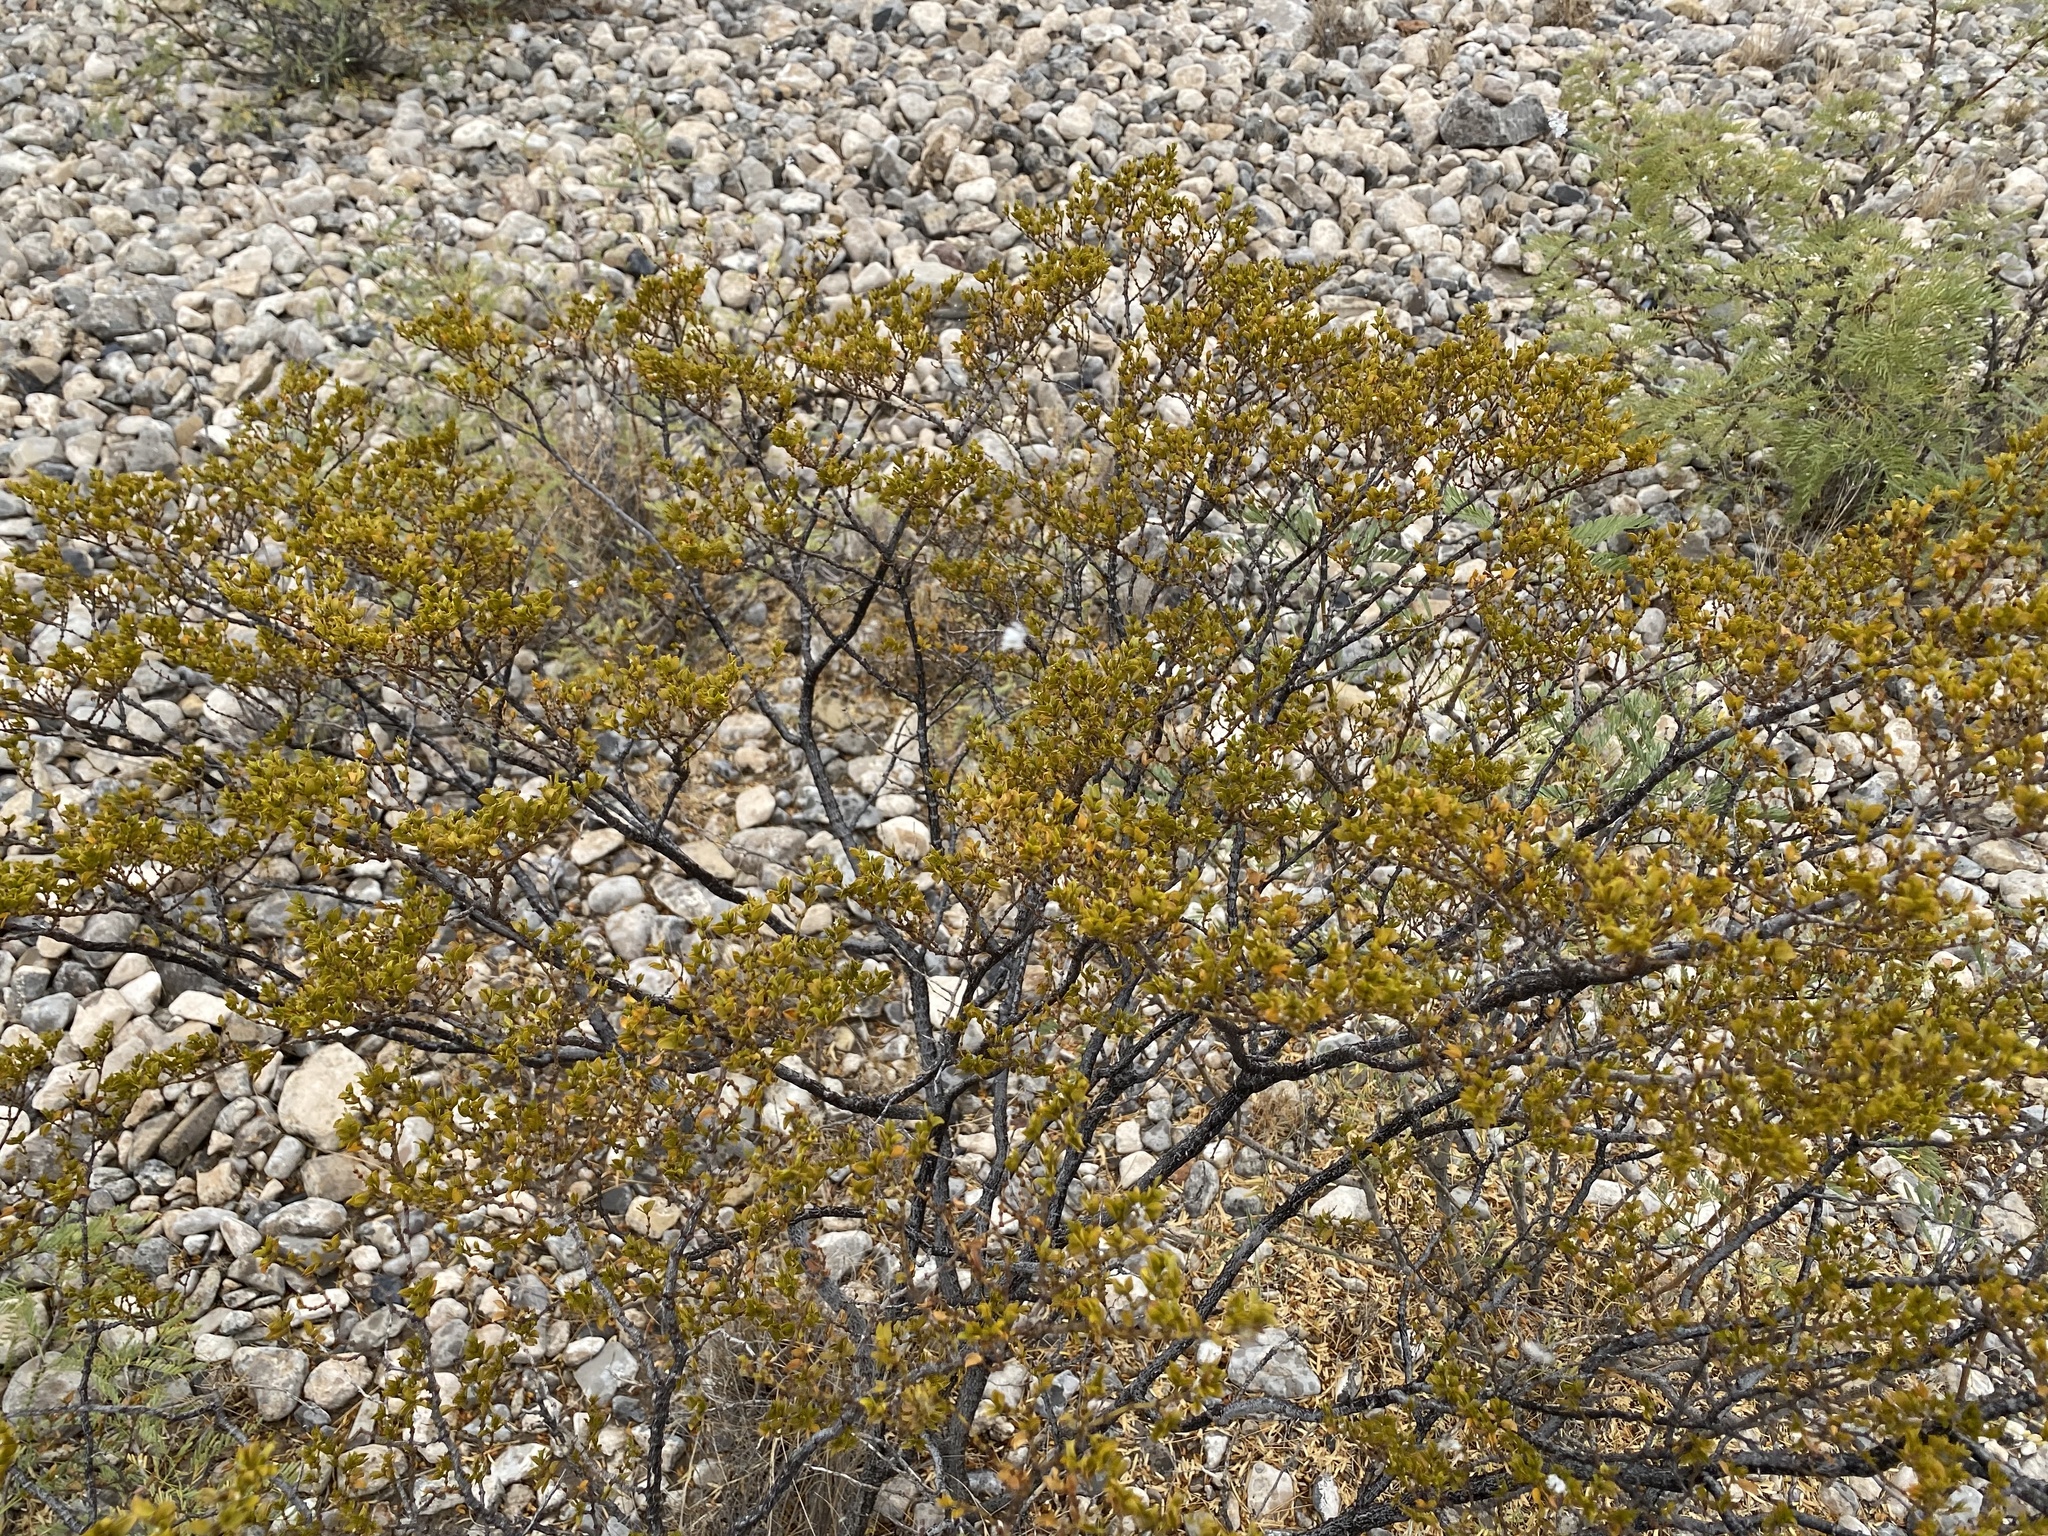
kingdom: Plantae
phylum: Tracheophyta
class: Magnoliopsida
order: Zygophyllales
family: Zygophyllaceae
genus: Larrea
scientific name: Larrea tridentata
